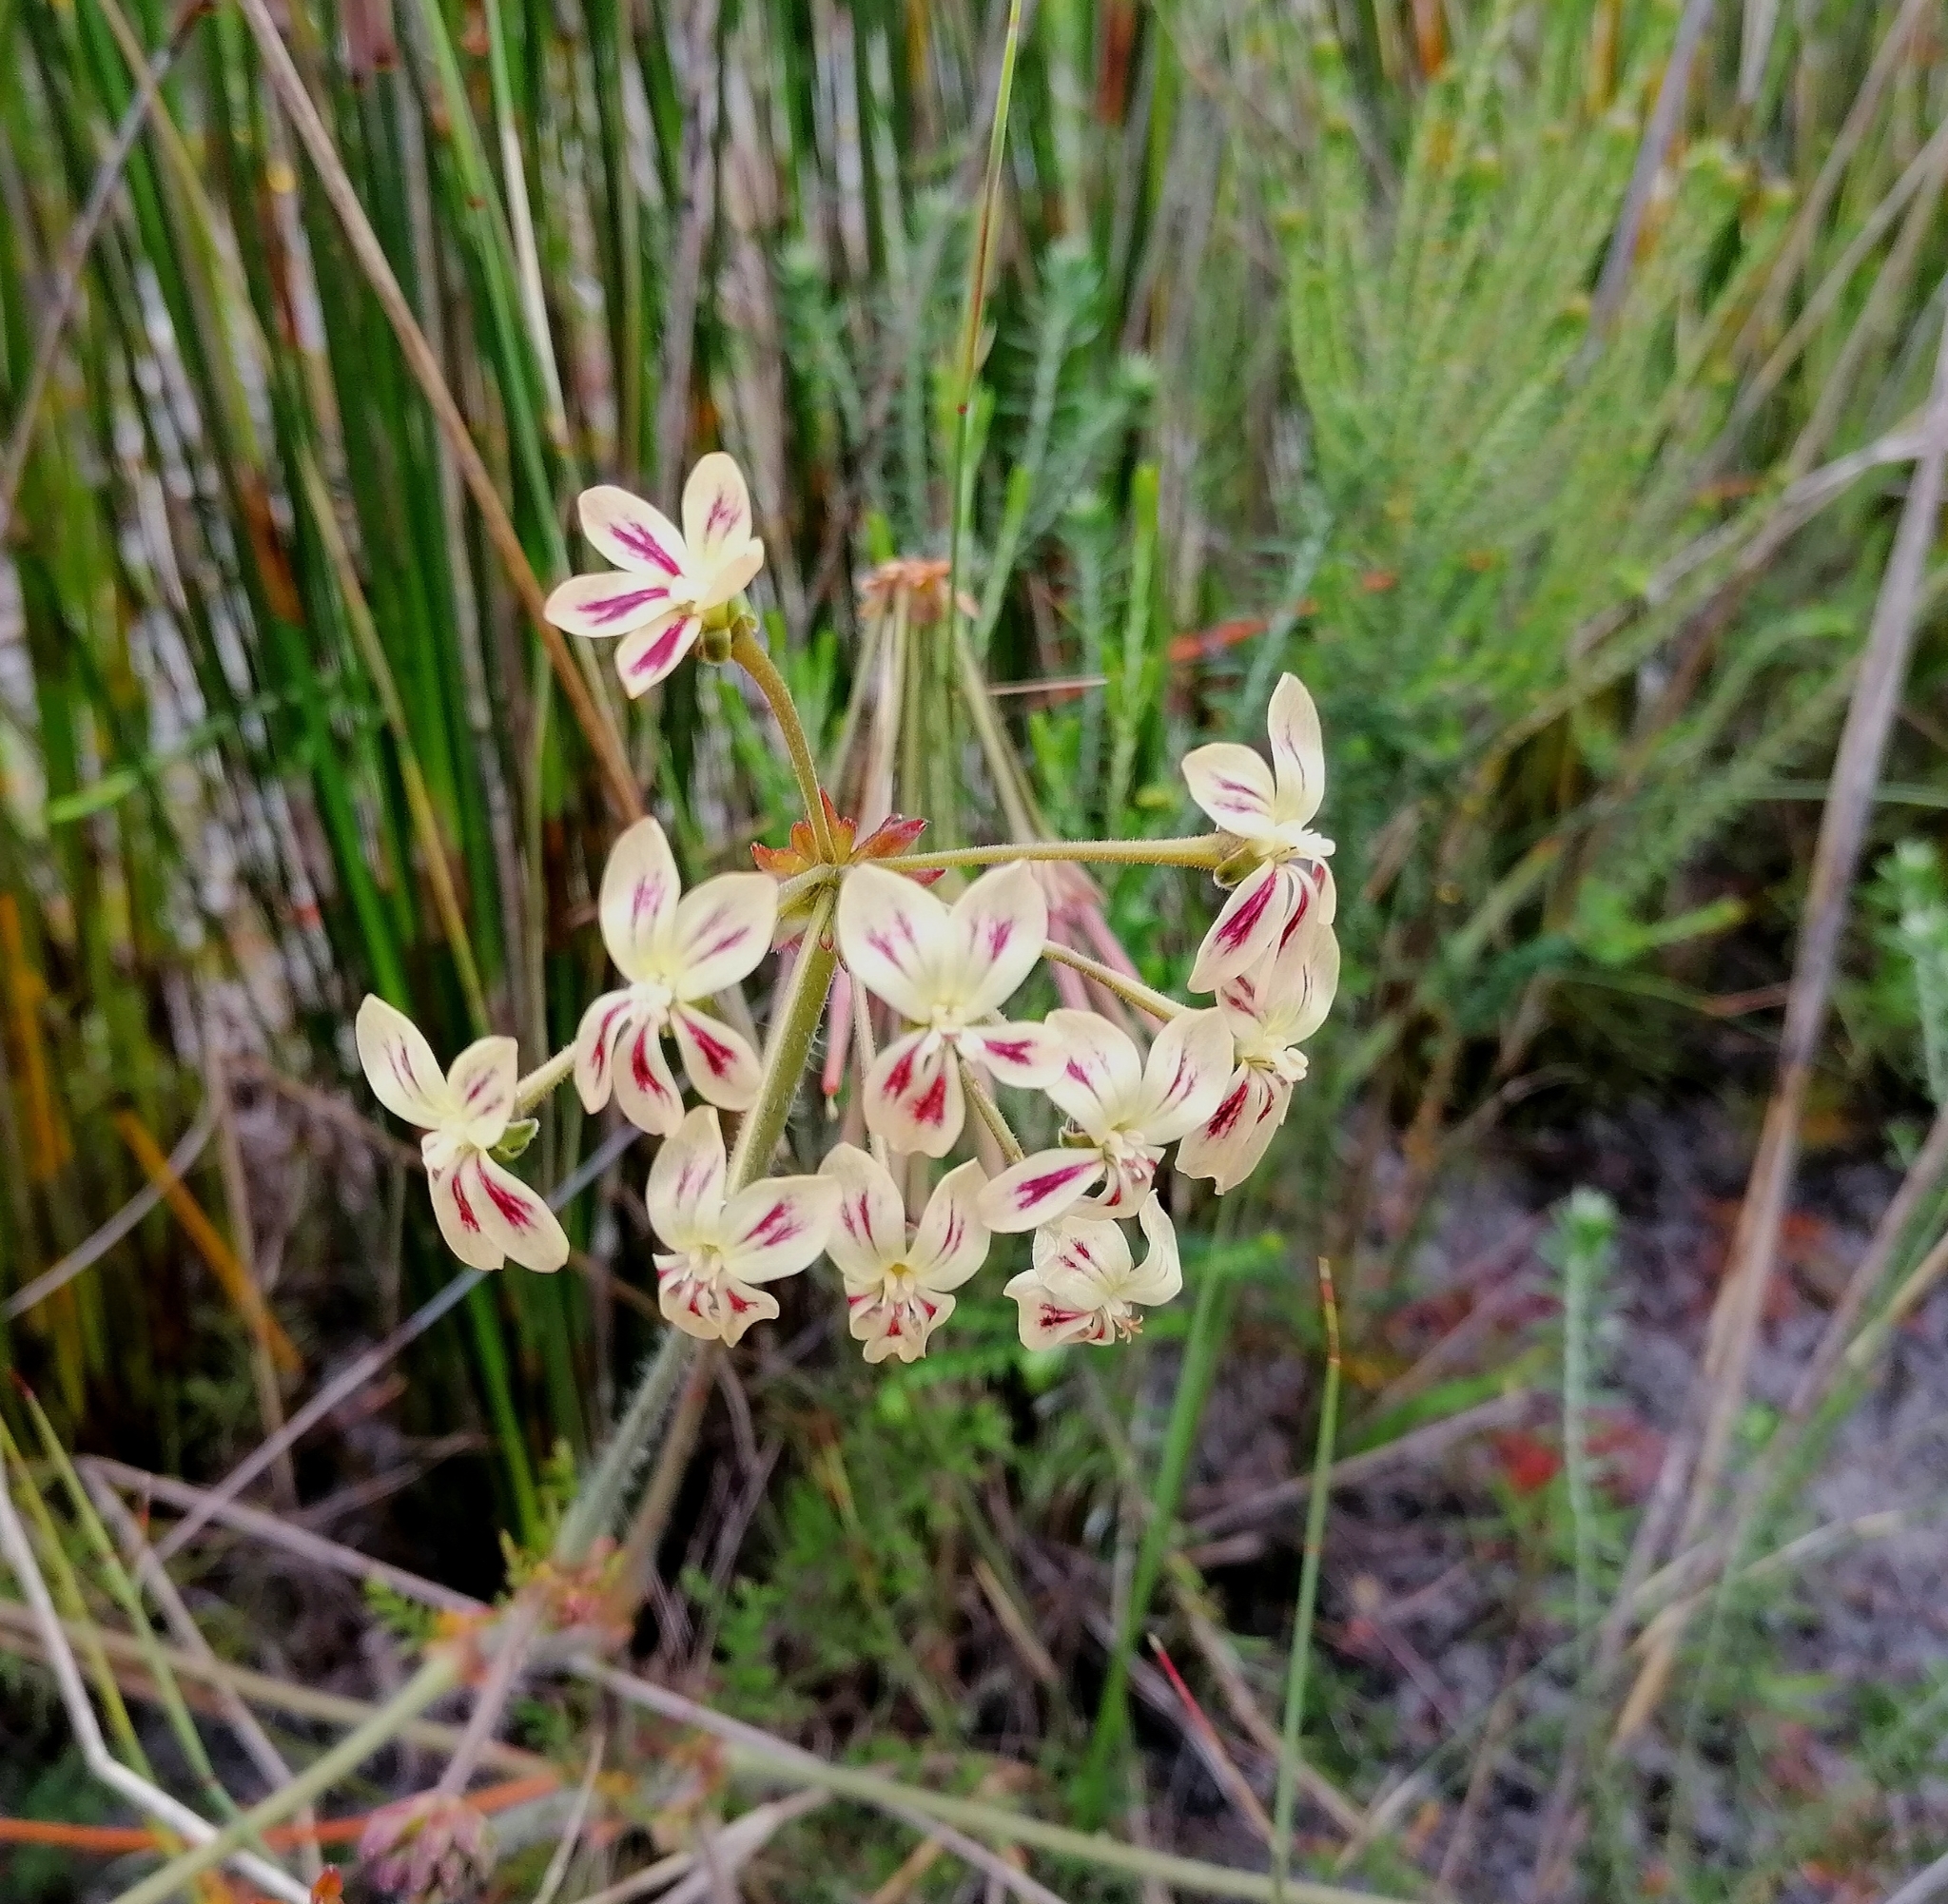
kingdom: Plantae
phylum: Tracheophyta
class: Magnoliopsida
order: Geraniales
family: Geraniaceae
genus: Pelargonium
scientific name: Pelargonium triste
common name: Night-scent pelargonium
